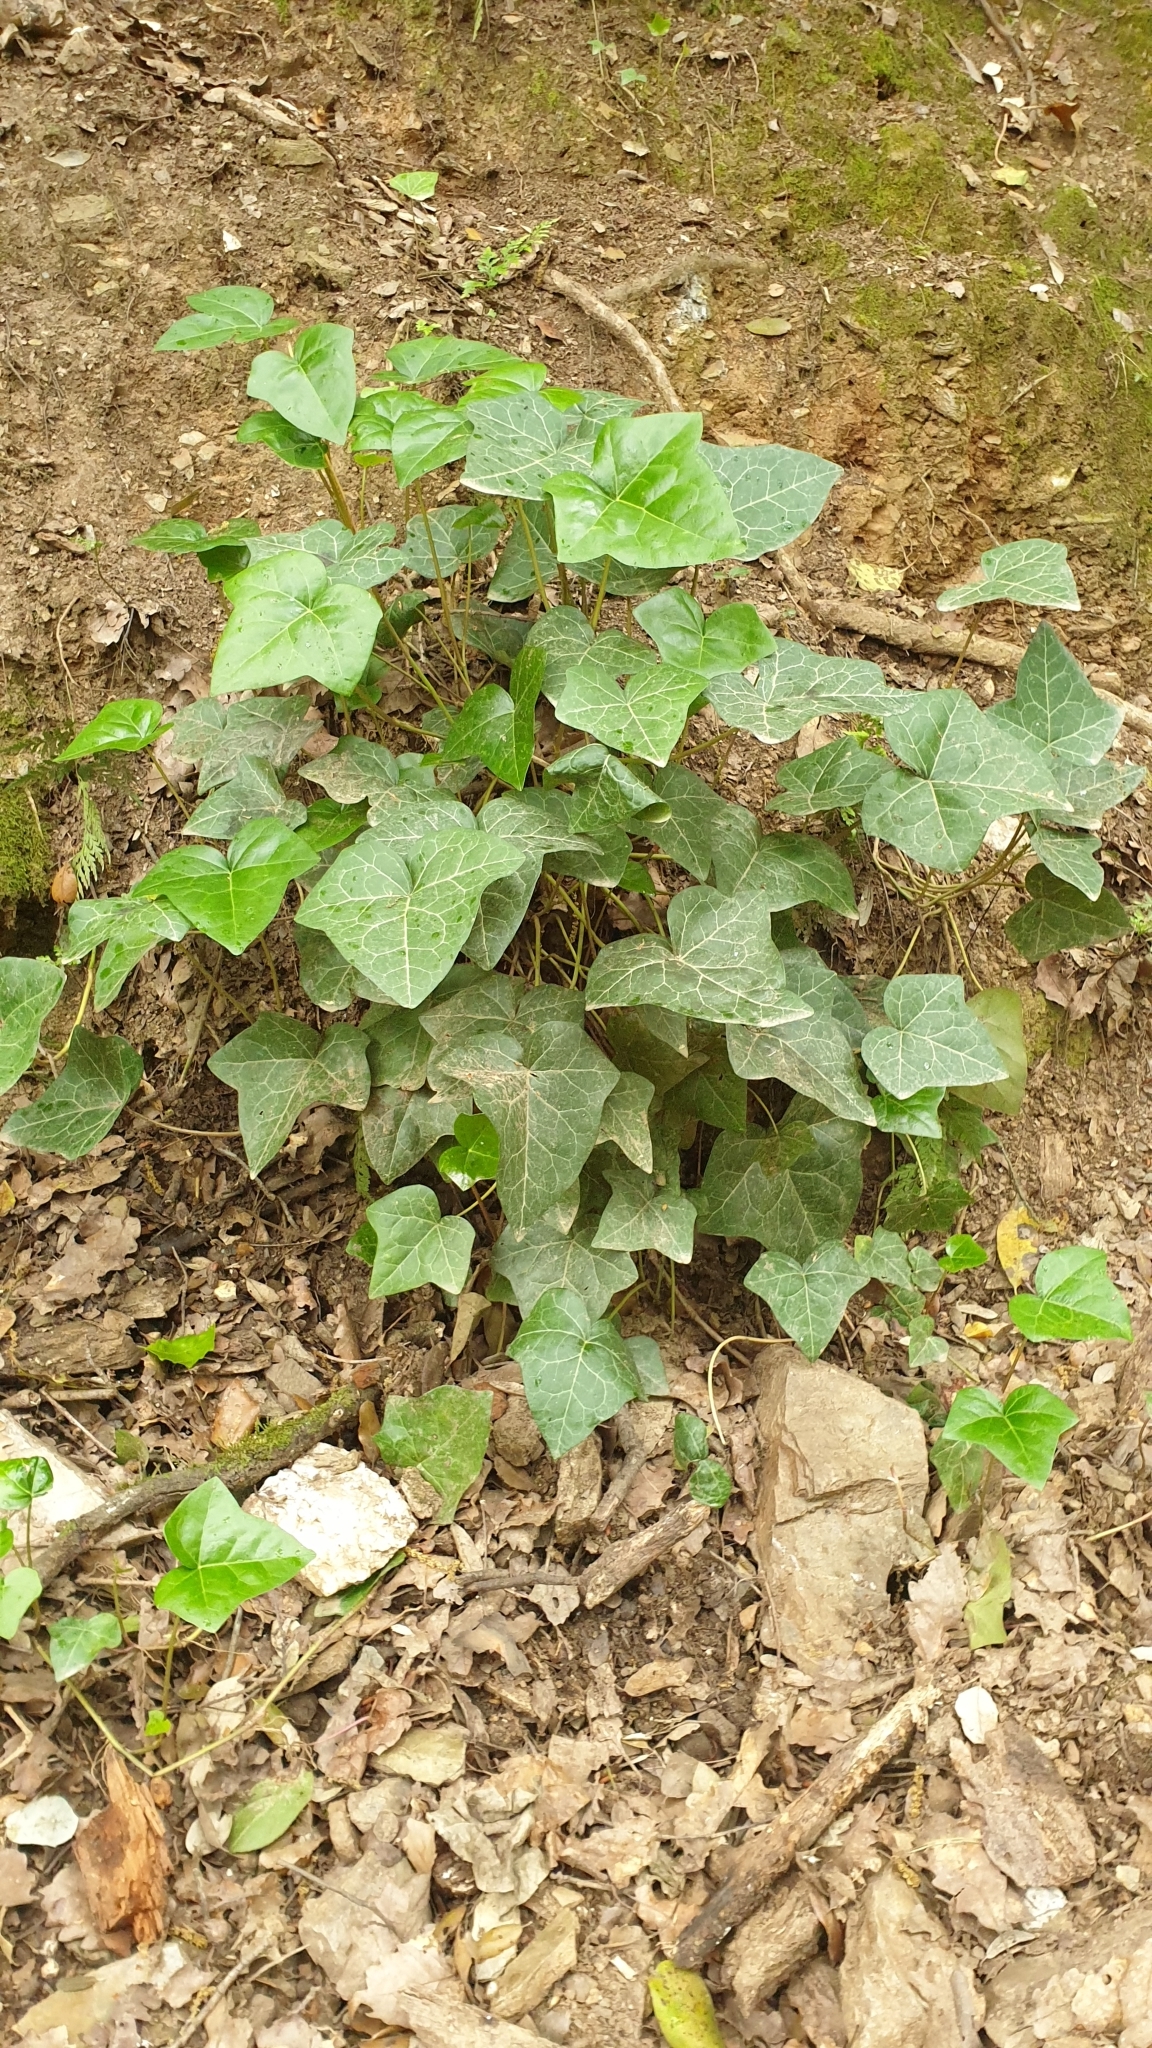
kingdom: Plantae
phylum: Tracheophyta
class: Magnoliopsida
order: Apiales
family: Araliaceae
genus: Hedera
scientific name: Hedera helix
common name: Ivy
